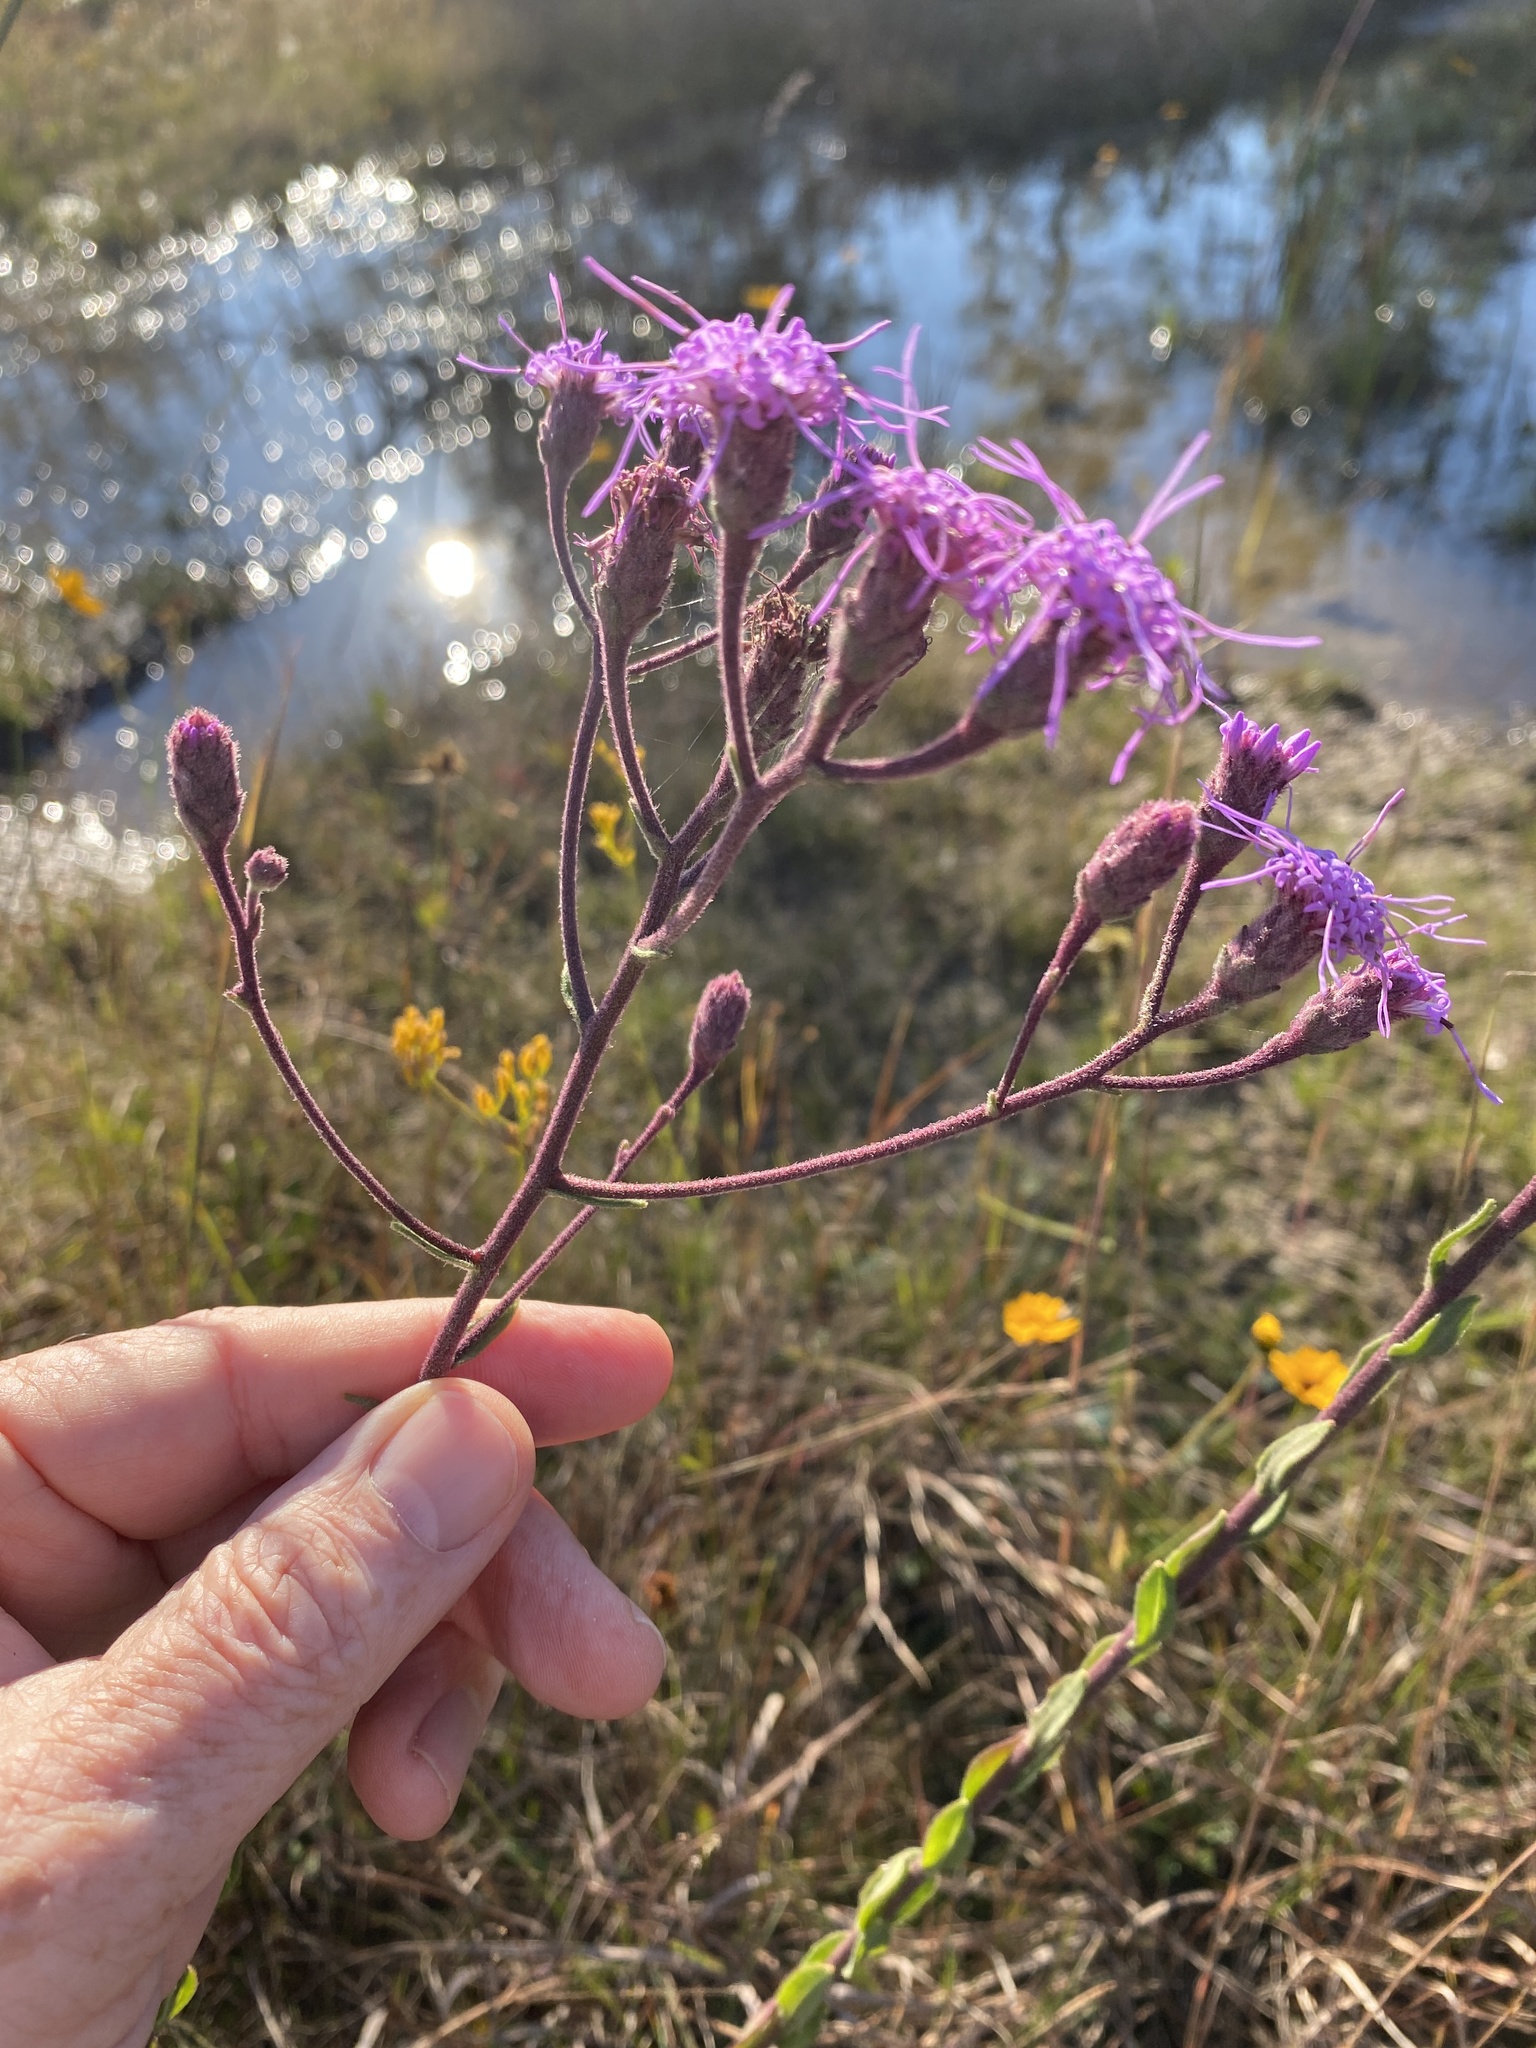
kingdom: Plantae
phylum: Tracheophyta
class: Magnoliopsida
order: Asterales
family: Asteraceae
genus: Carphephorus
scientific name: Carphephorus tomentosus
